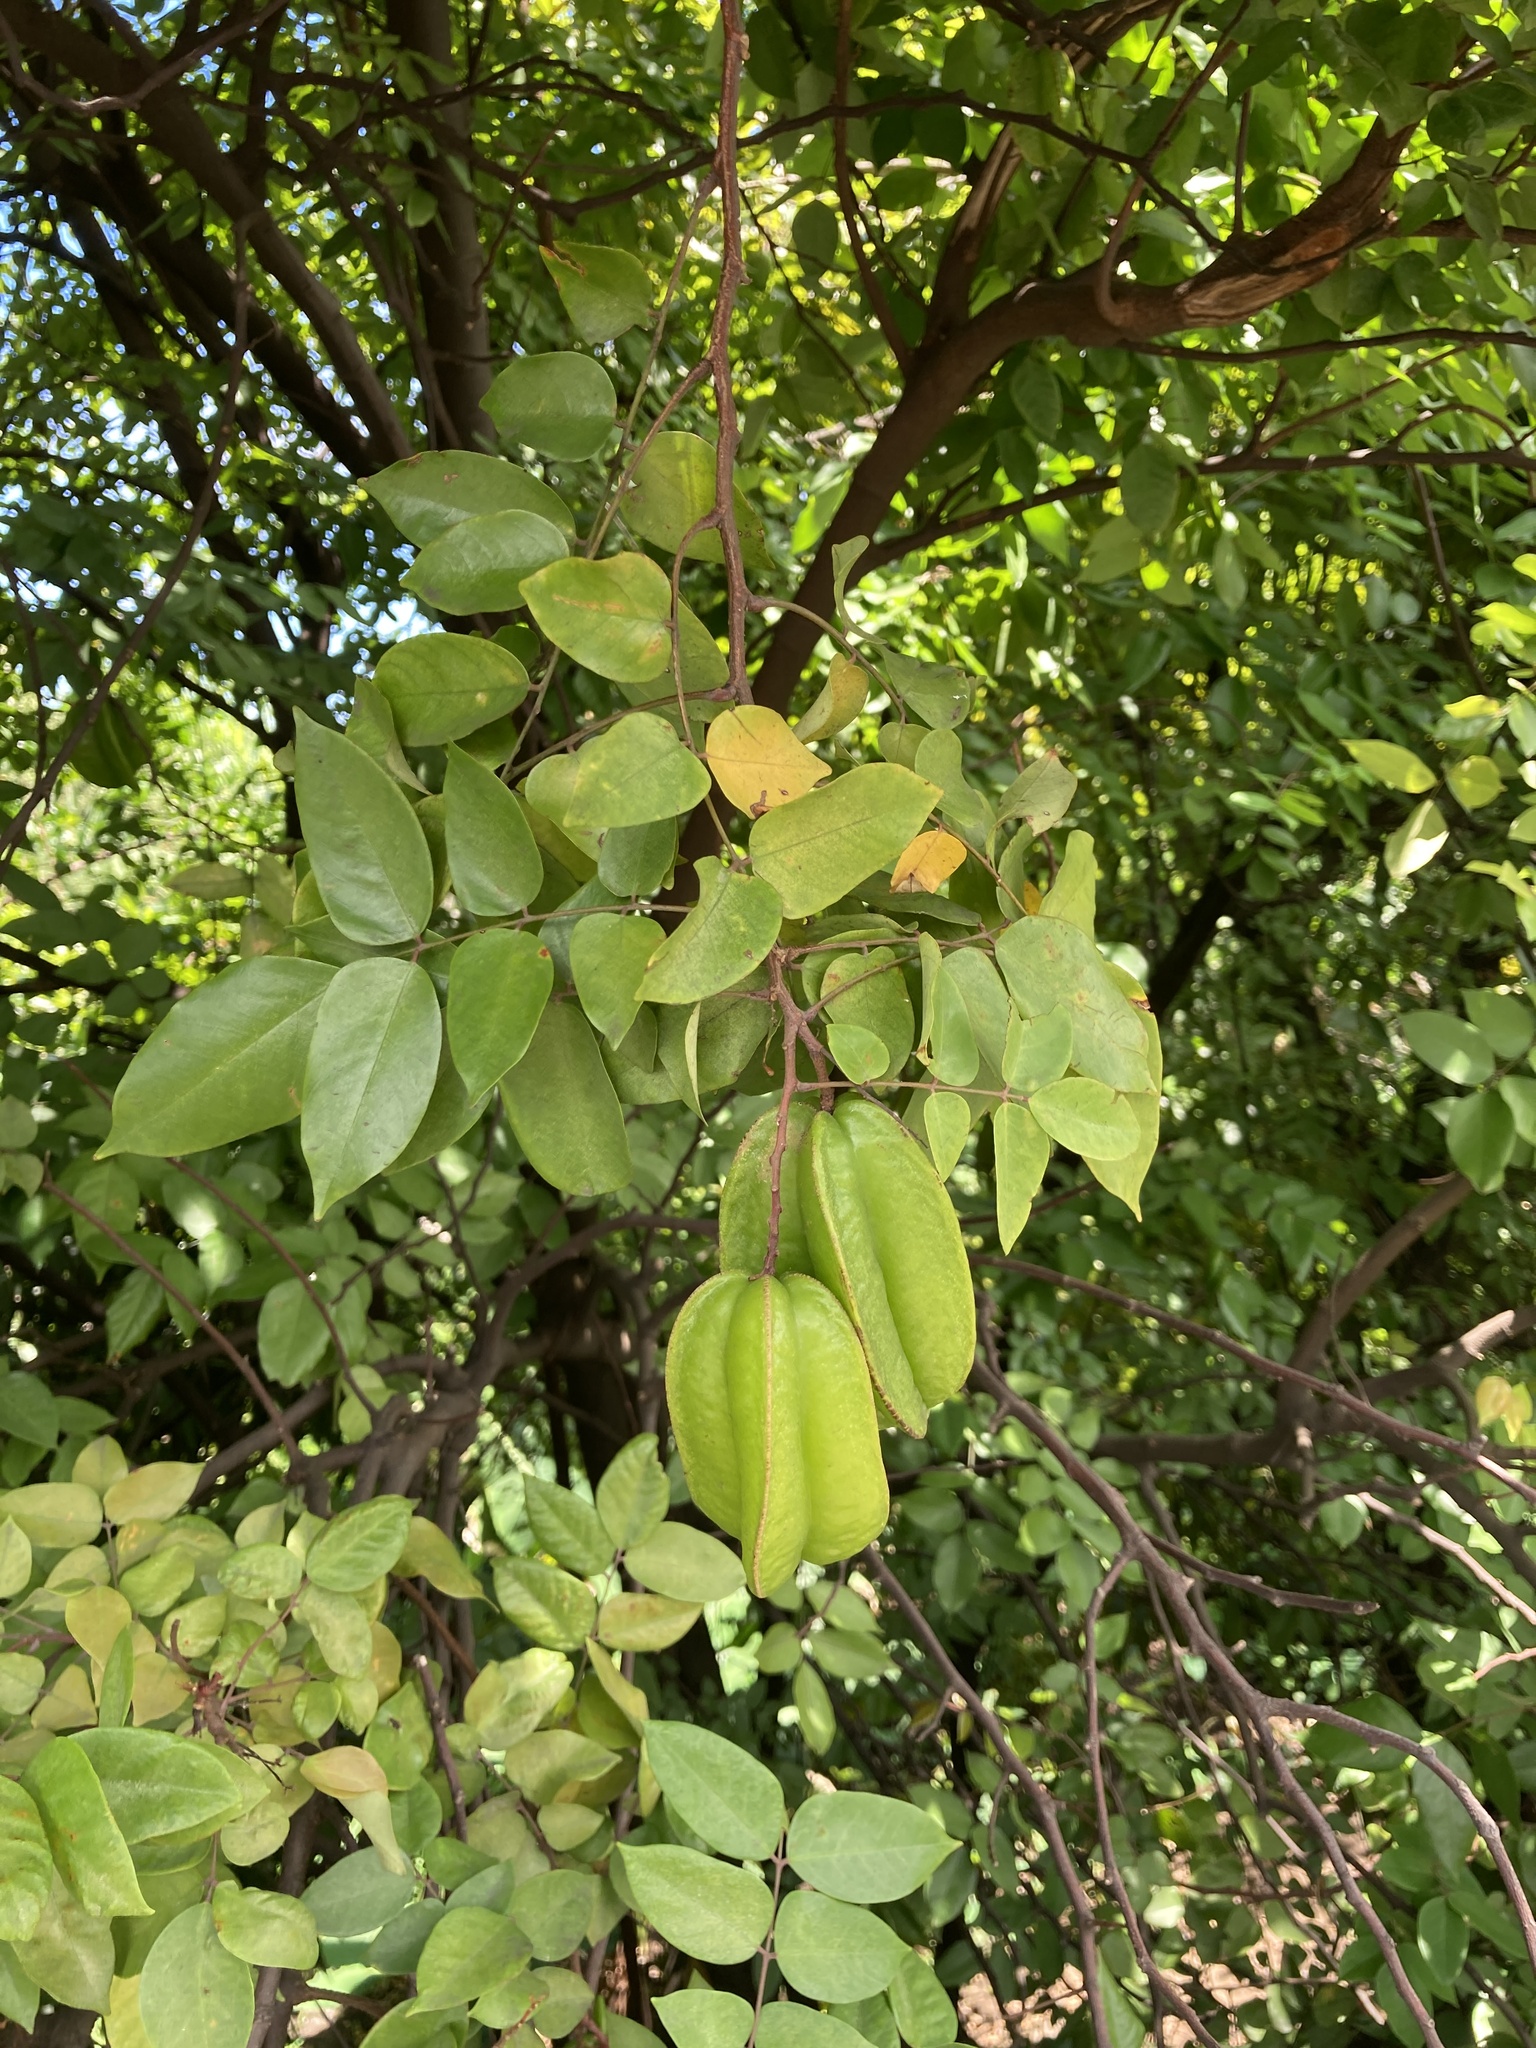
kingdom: Plantae
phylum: Tracheophyta
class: Magnoliopsida
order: Oxalidales
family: Oxalidaceae
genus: Averrhoa
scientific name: Averrhoa carambola
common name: Blimbing
